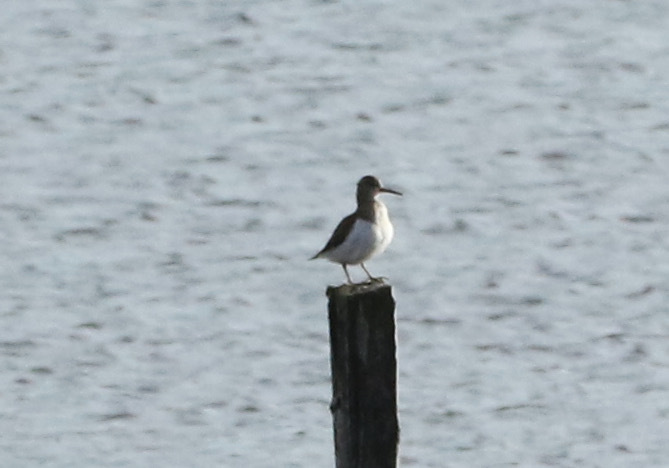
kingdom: Animalia
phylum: Chordata
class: Aves
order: Charadriiformes
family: Scolopacidae
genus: Actitis
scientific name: Actitis hypoleucos
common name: Common sandpiper
